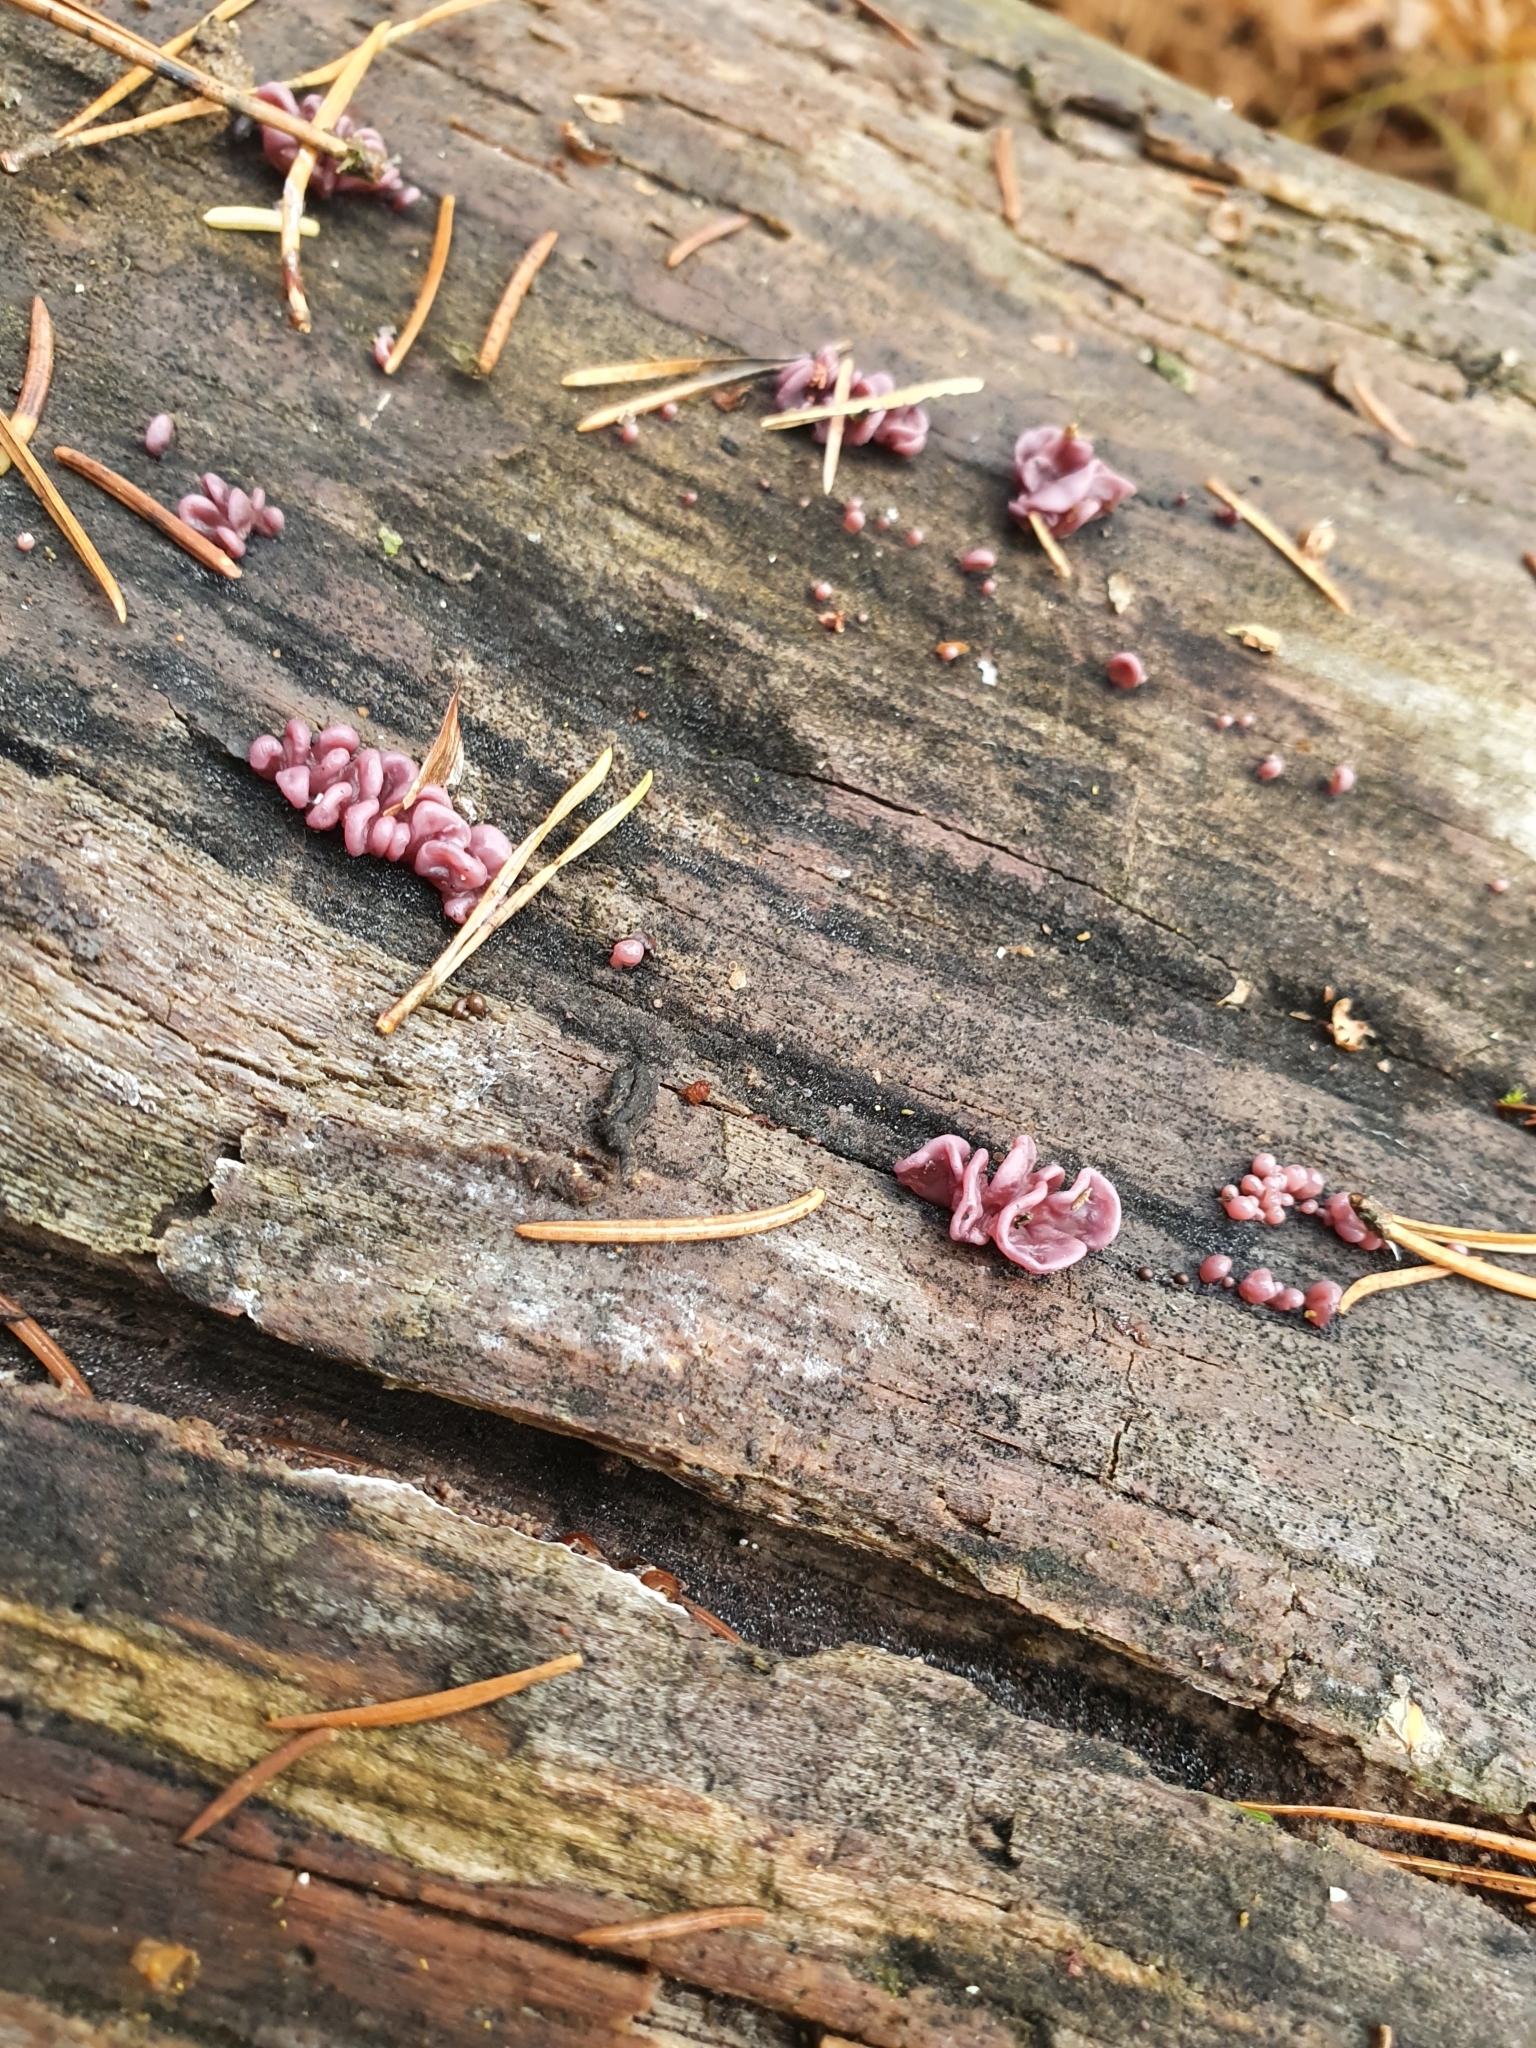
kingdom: Fungi
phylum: Ascomycota
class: Leotiomycetes
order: Helotiales
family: Gelatinodiscaceae
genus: Ascocoryne
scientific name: Ascocoryne sarcoides
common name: Purple jellydisc
